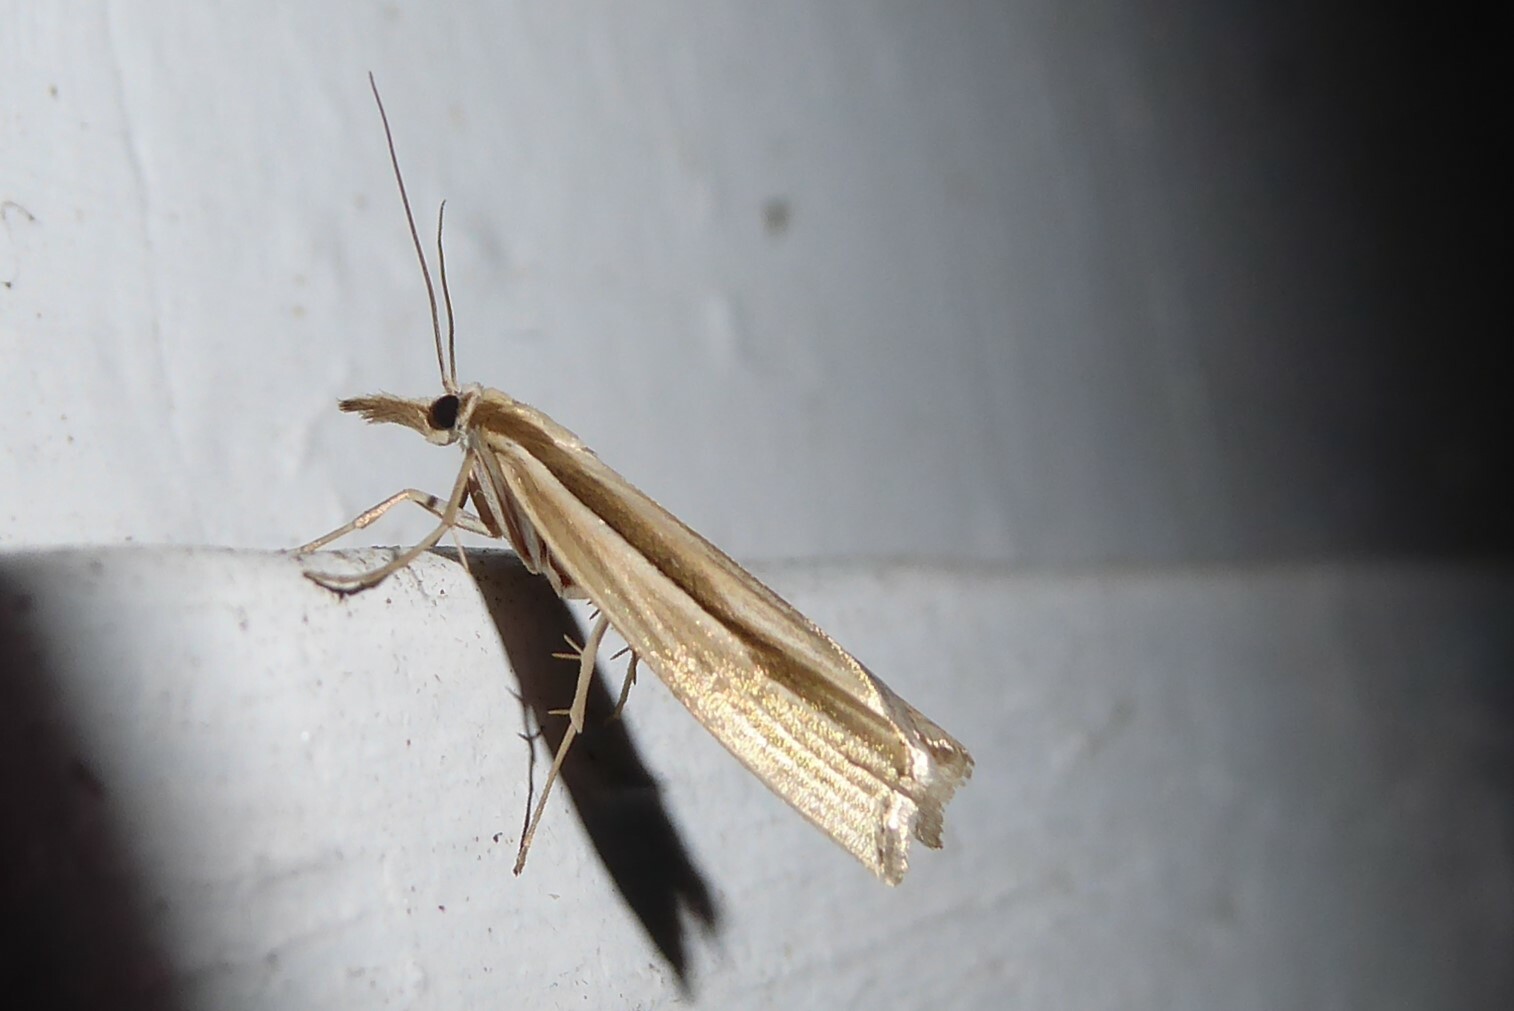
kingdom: Animalia
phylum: Arthropoda
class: Insecta
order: Lepidoptera
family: Crambidae
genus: Orocrambus
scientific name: Orocrambus ramosellus
